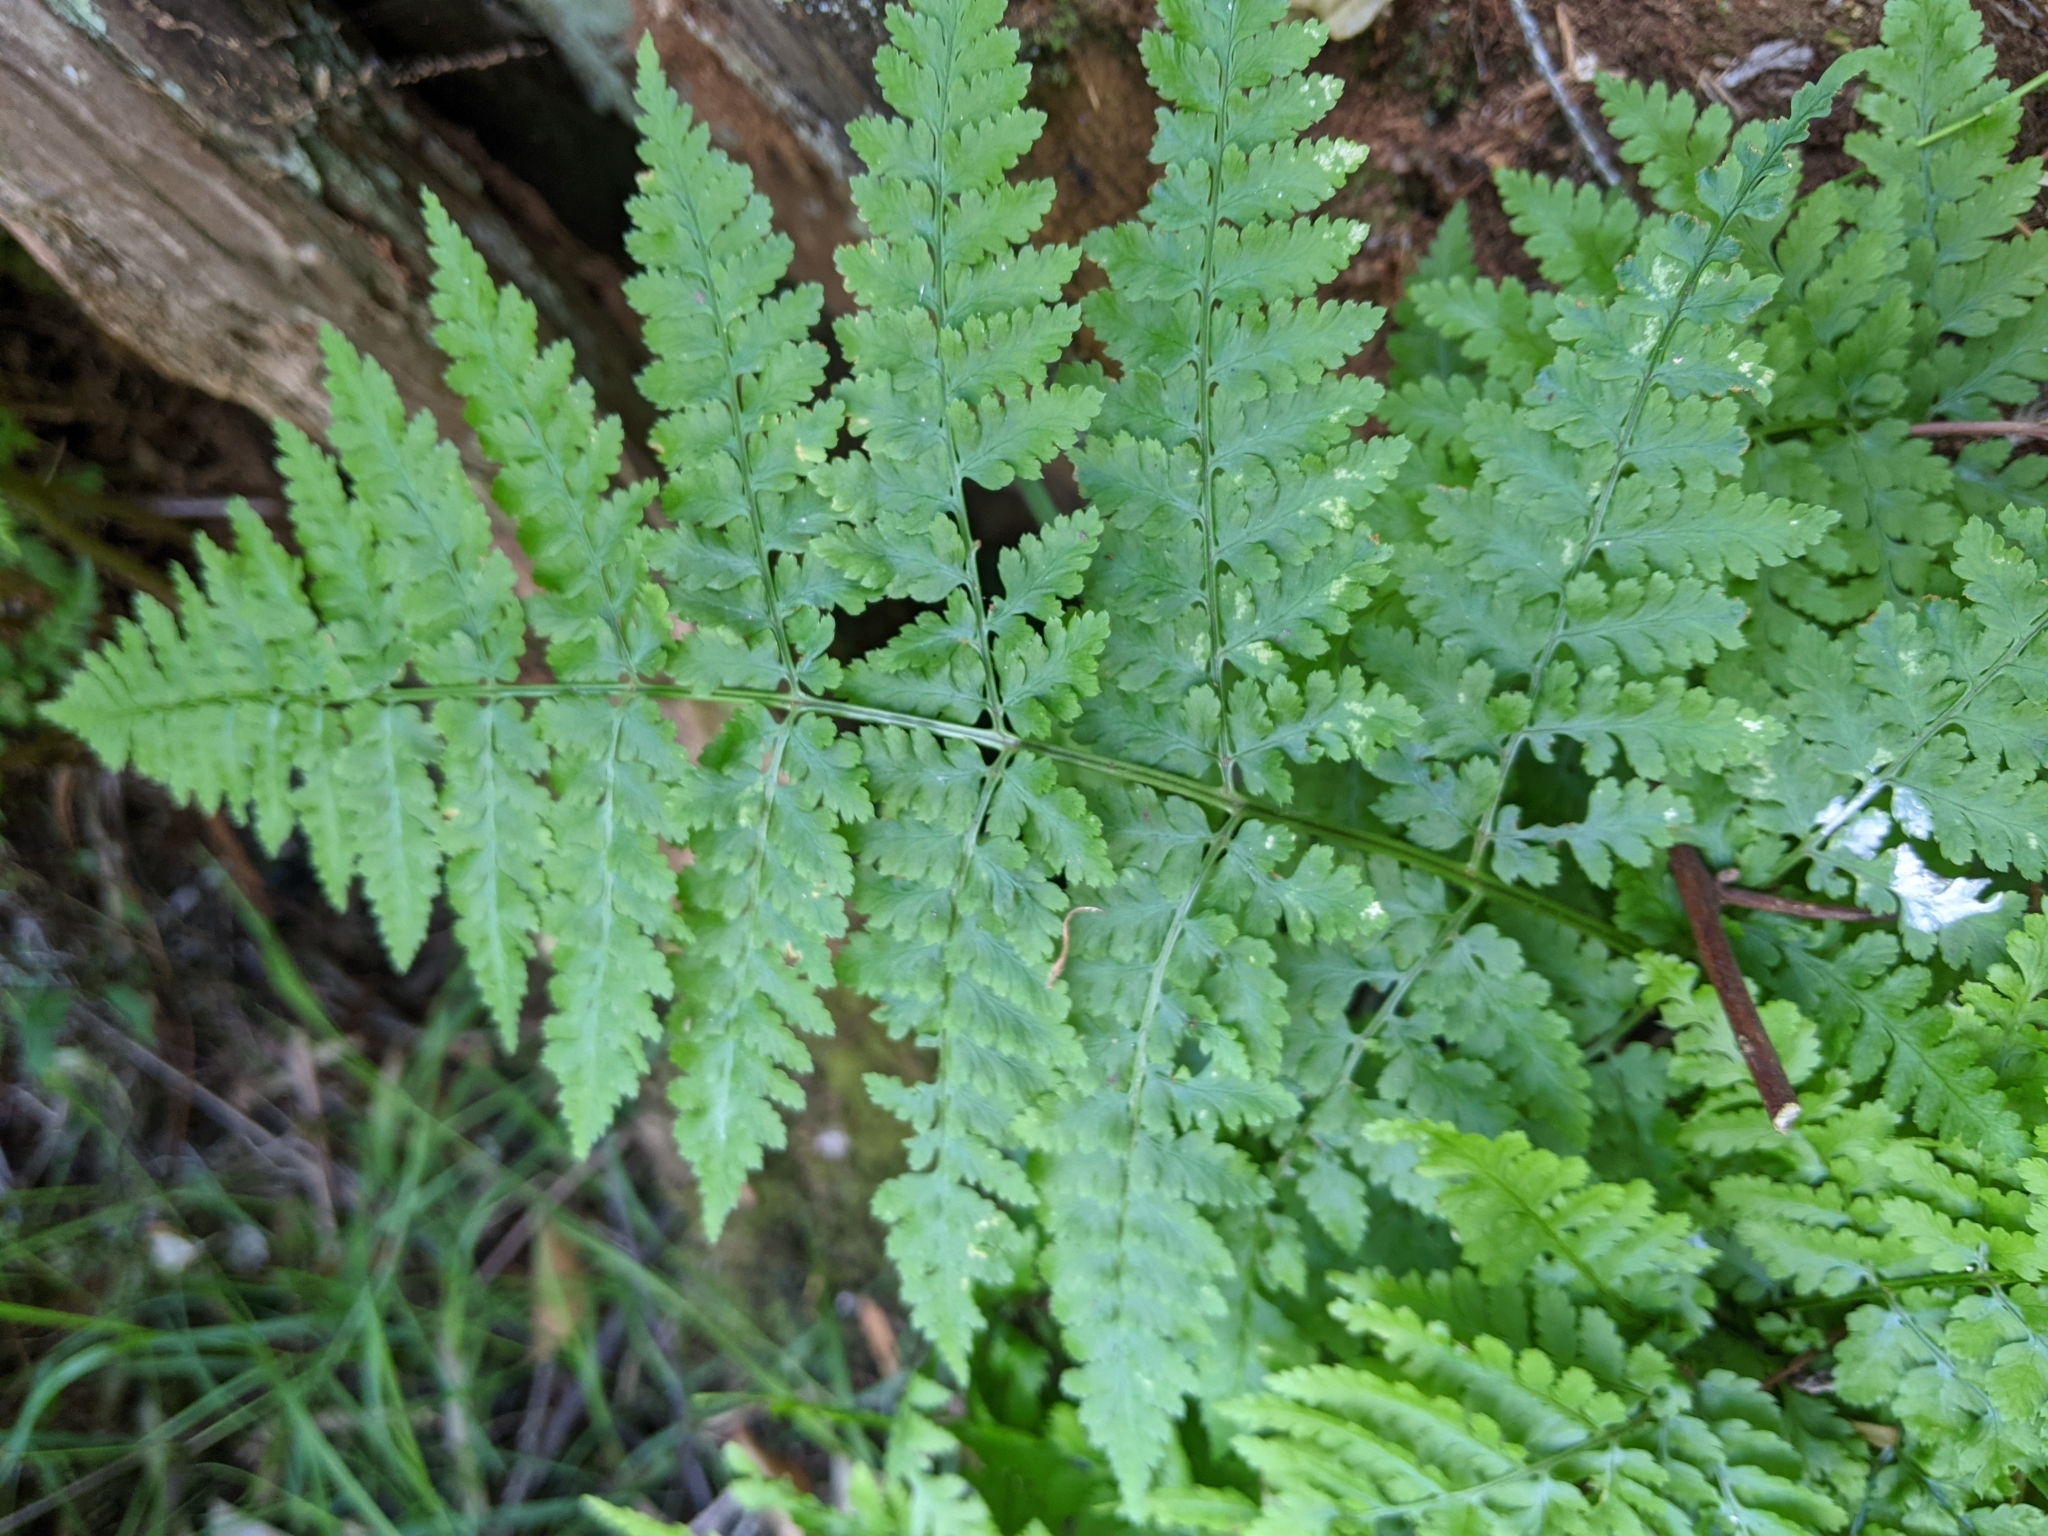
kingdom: Plantae
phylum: Tracheophyta
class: Polypodiopsida
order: Polypodiales
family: Dryopteridaceae
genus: Dryopteris
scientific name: Dryopteris expansa
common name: Northern buckler fern
